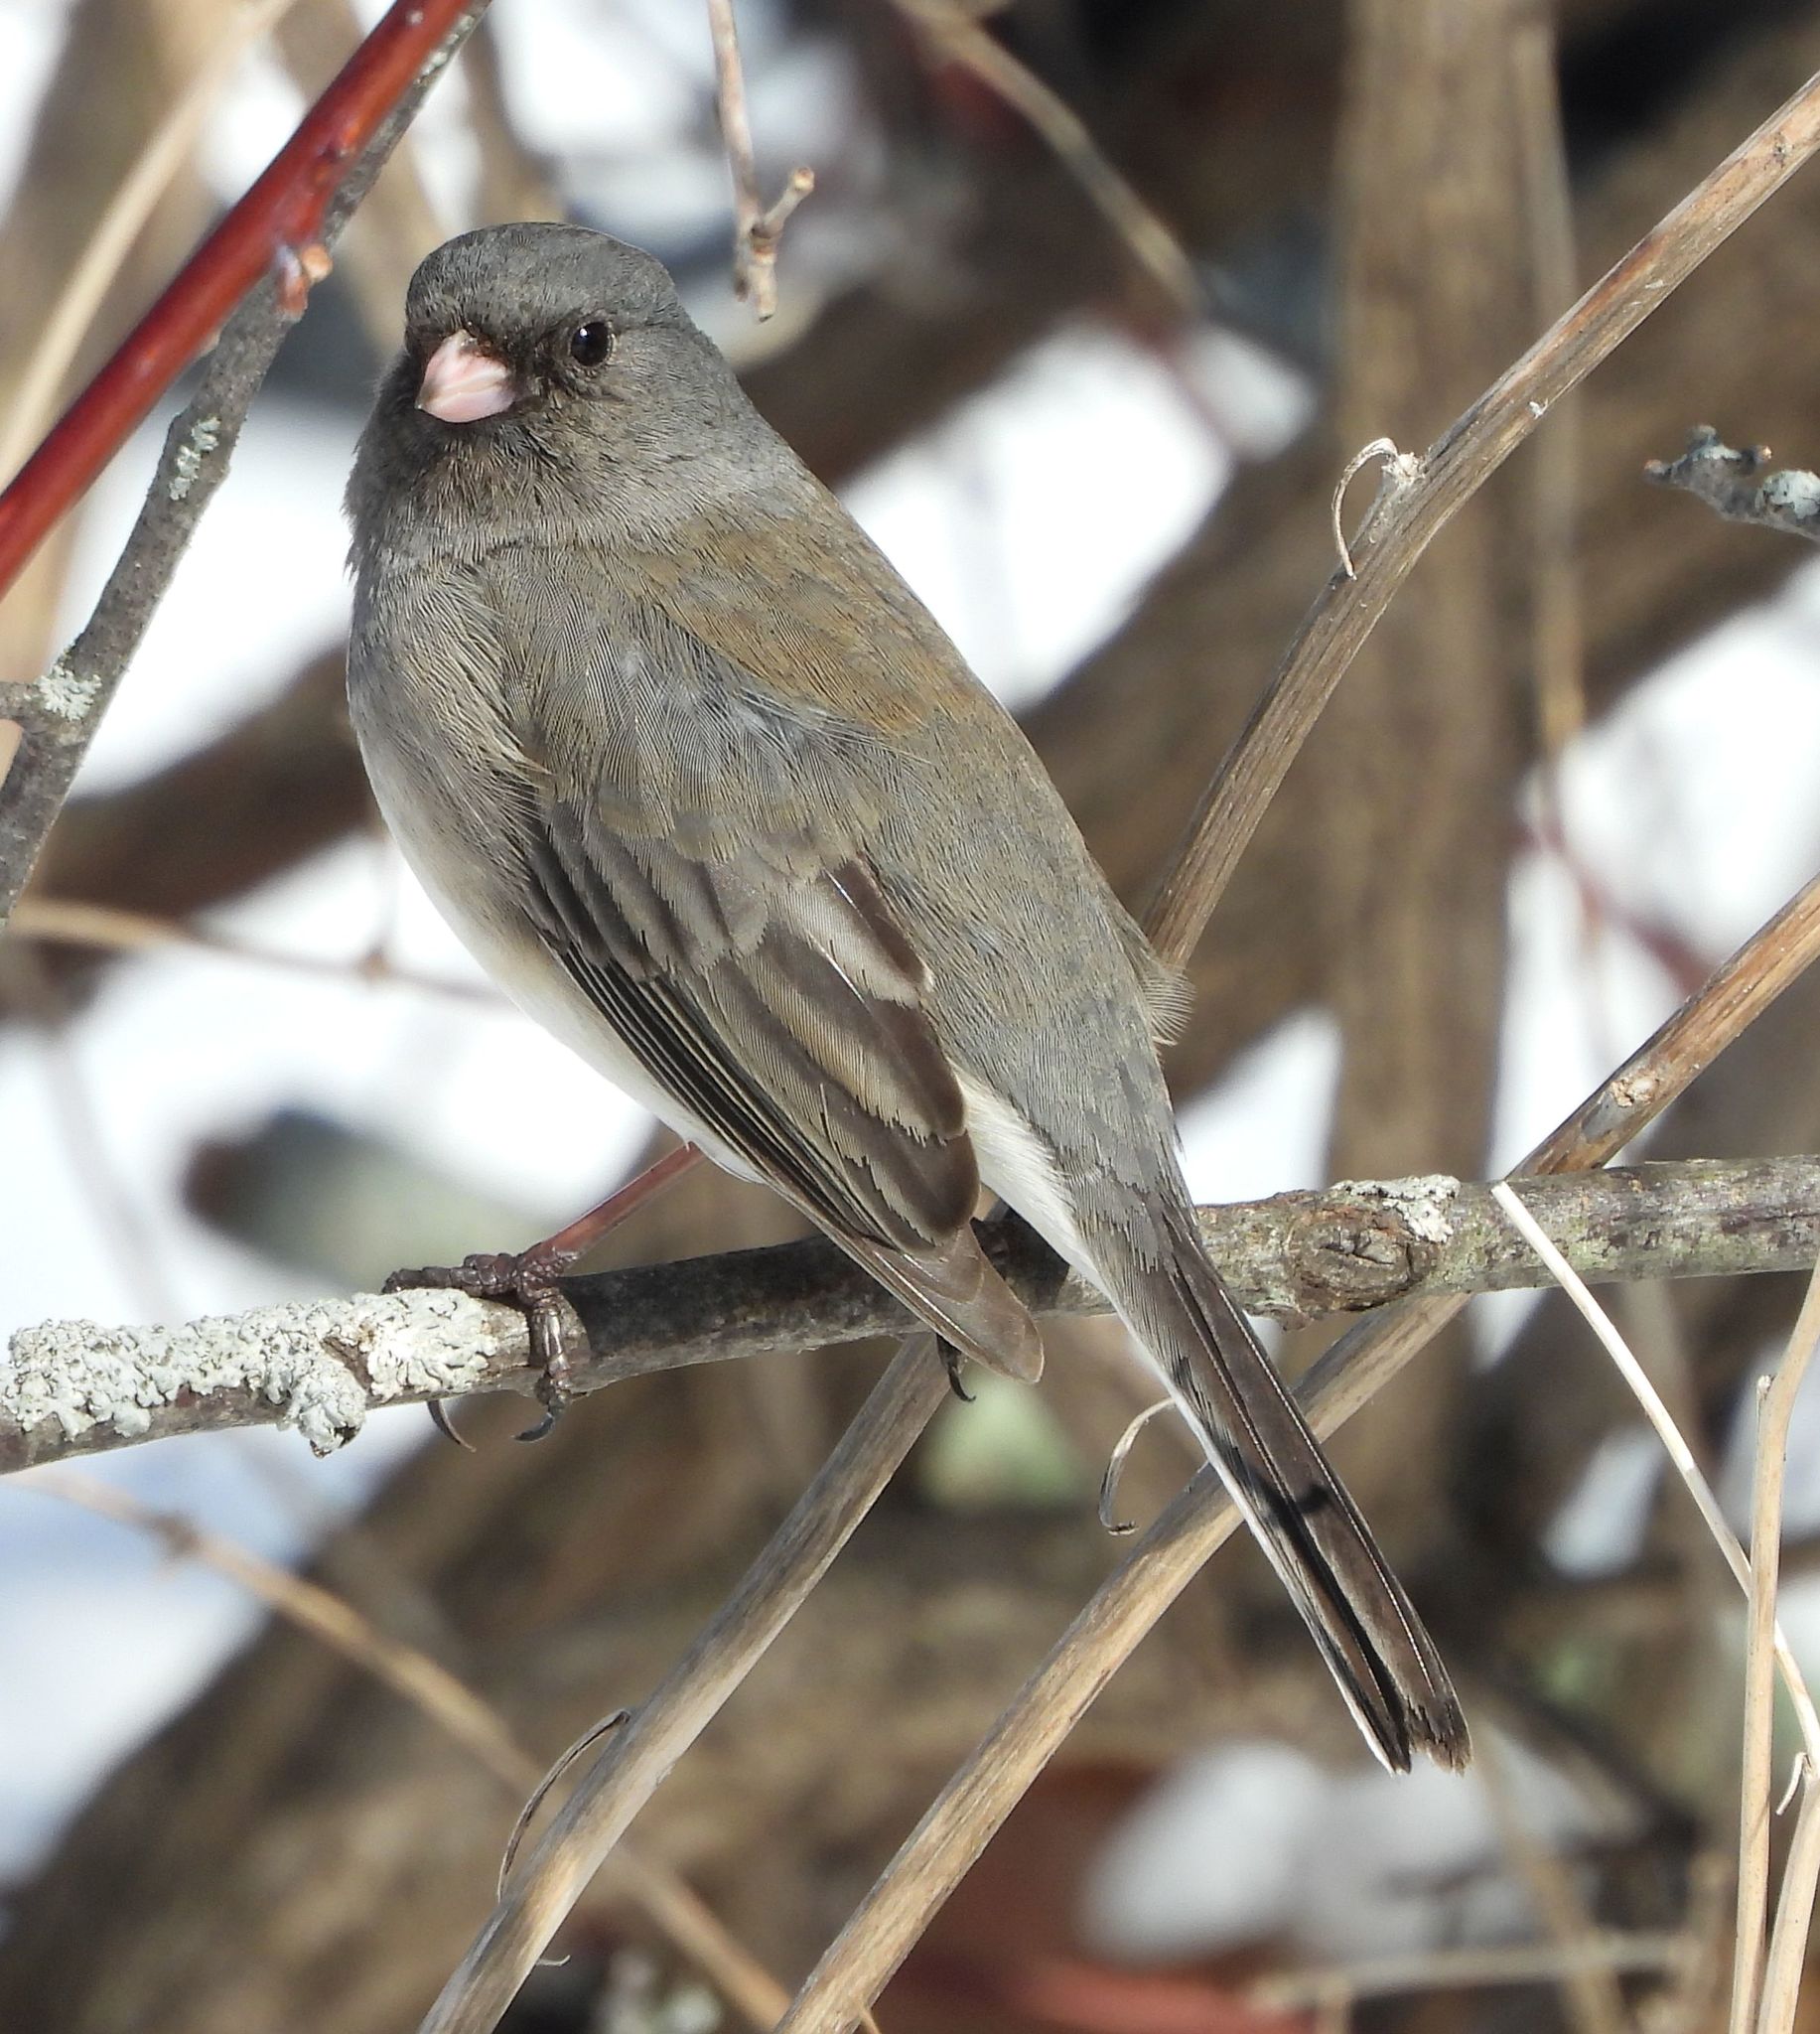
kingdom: Animalia
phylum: Chordata
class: Aves
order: Passeriformes
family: Passerellidae
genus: Junco
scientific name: Junco hyemalis
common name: Dark-eyed junco
